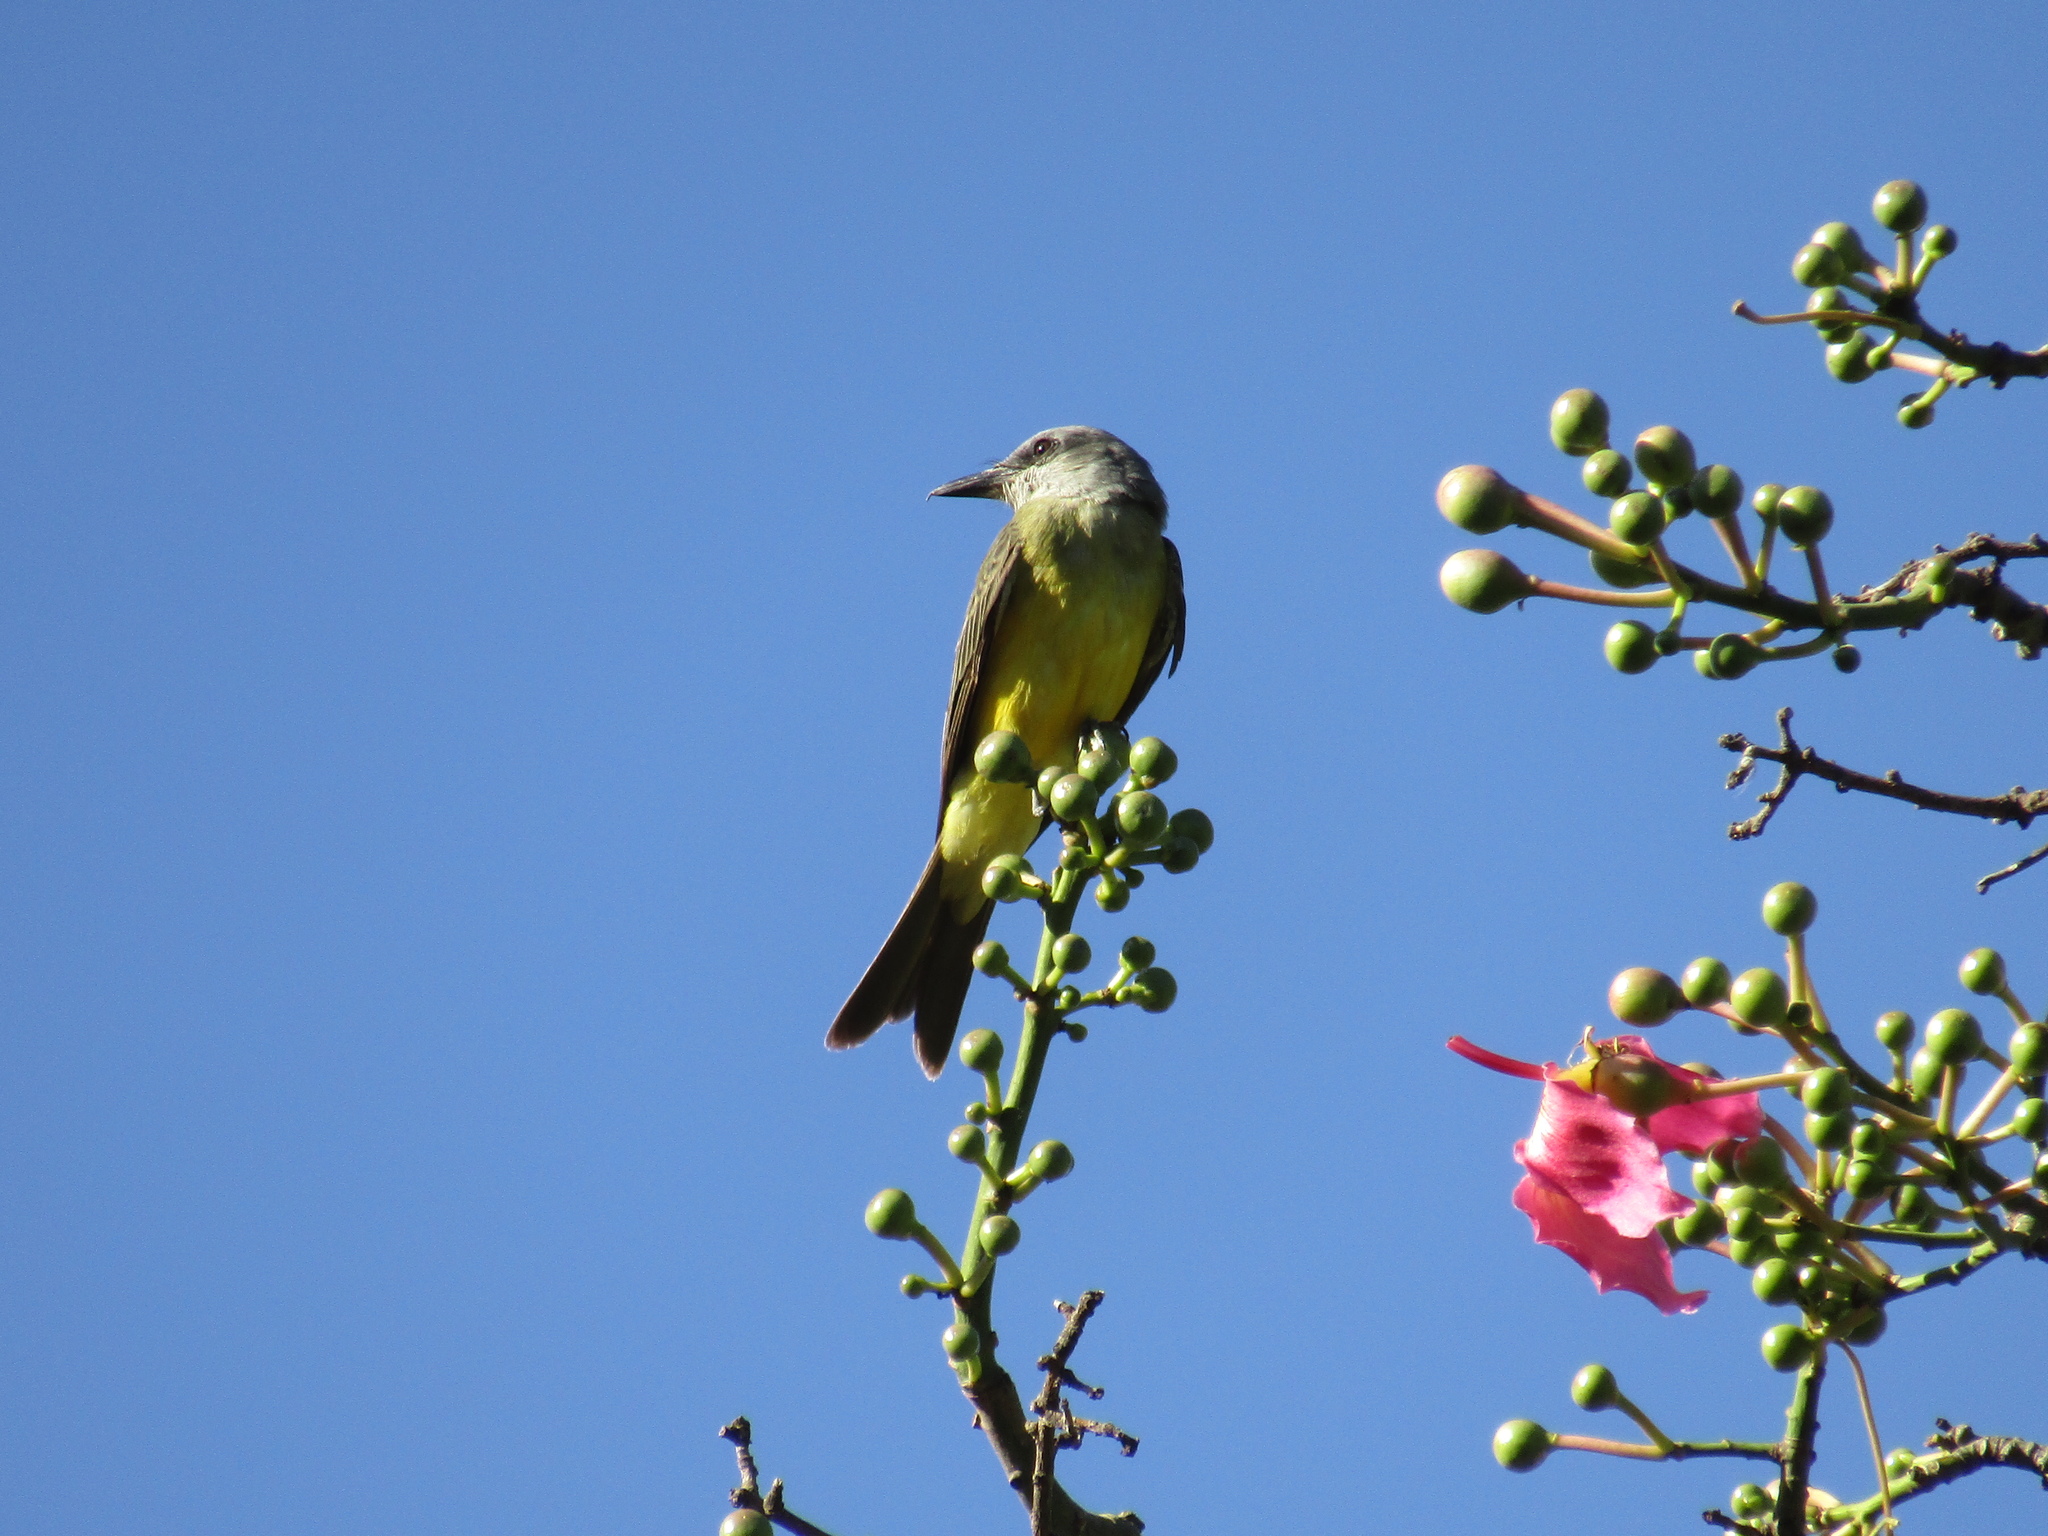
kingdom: Animalia
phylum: Chordata
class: Aves
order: Passeriformes
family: Tyrannidae
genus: Tyrannus
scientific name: Tyrannus melancholicus
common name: Tropical kingbird
